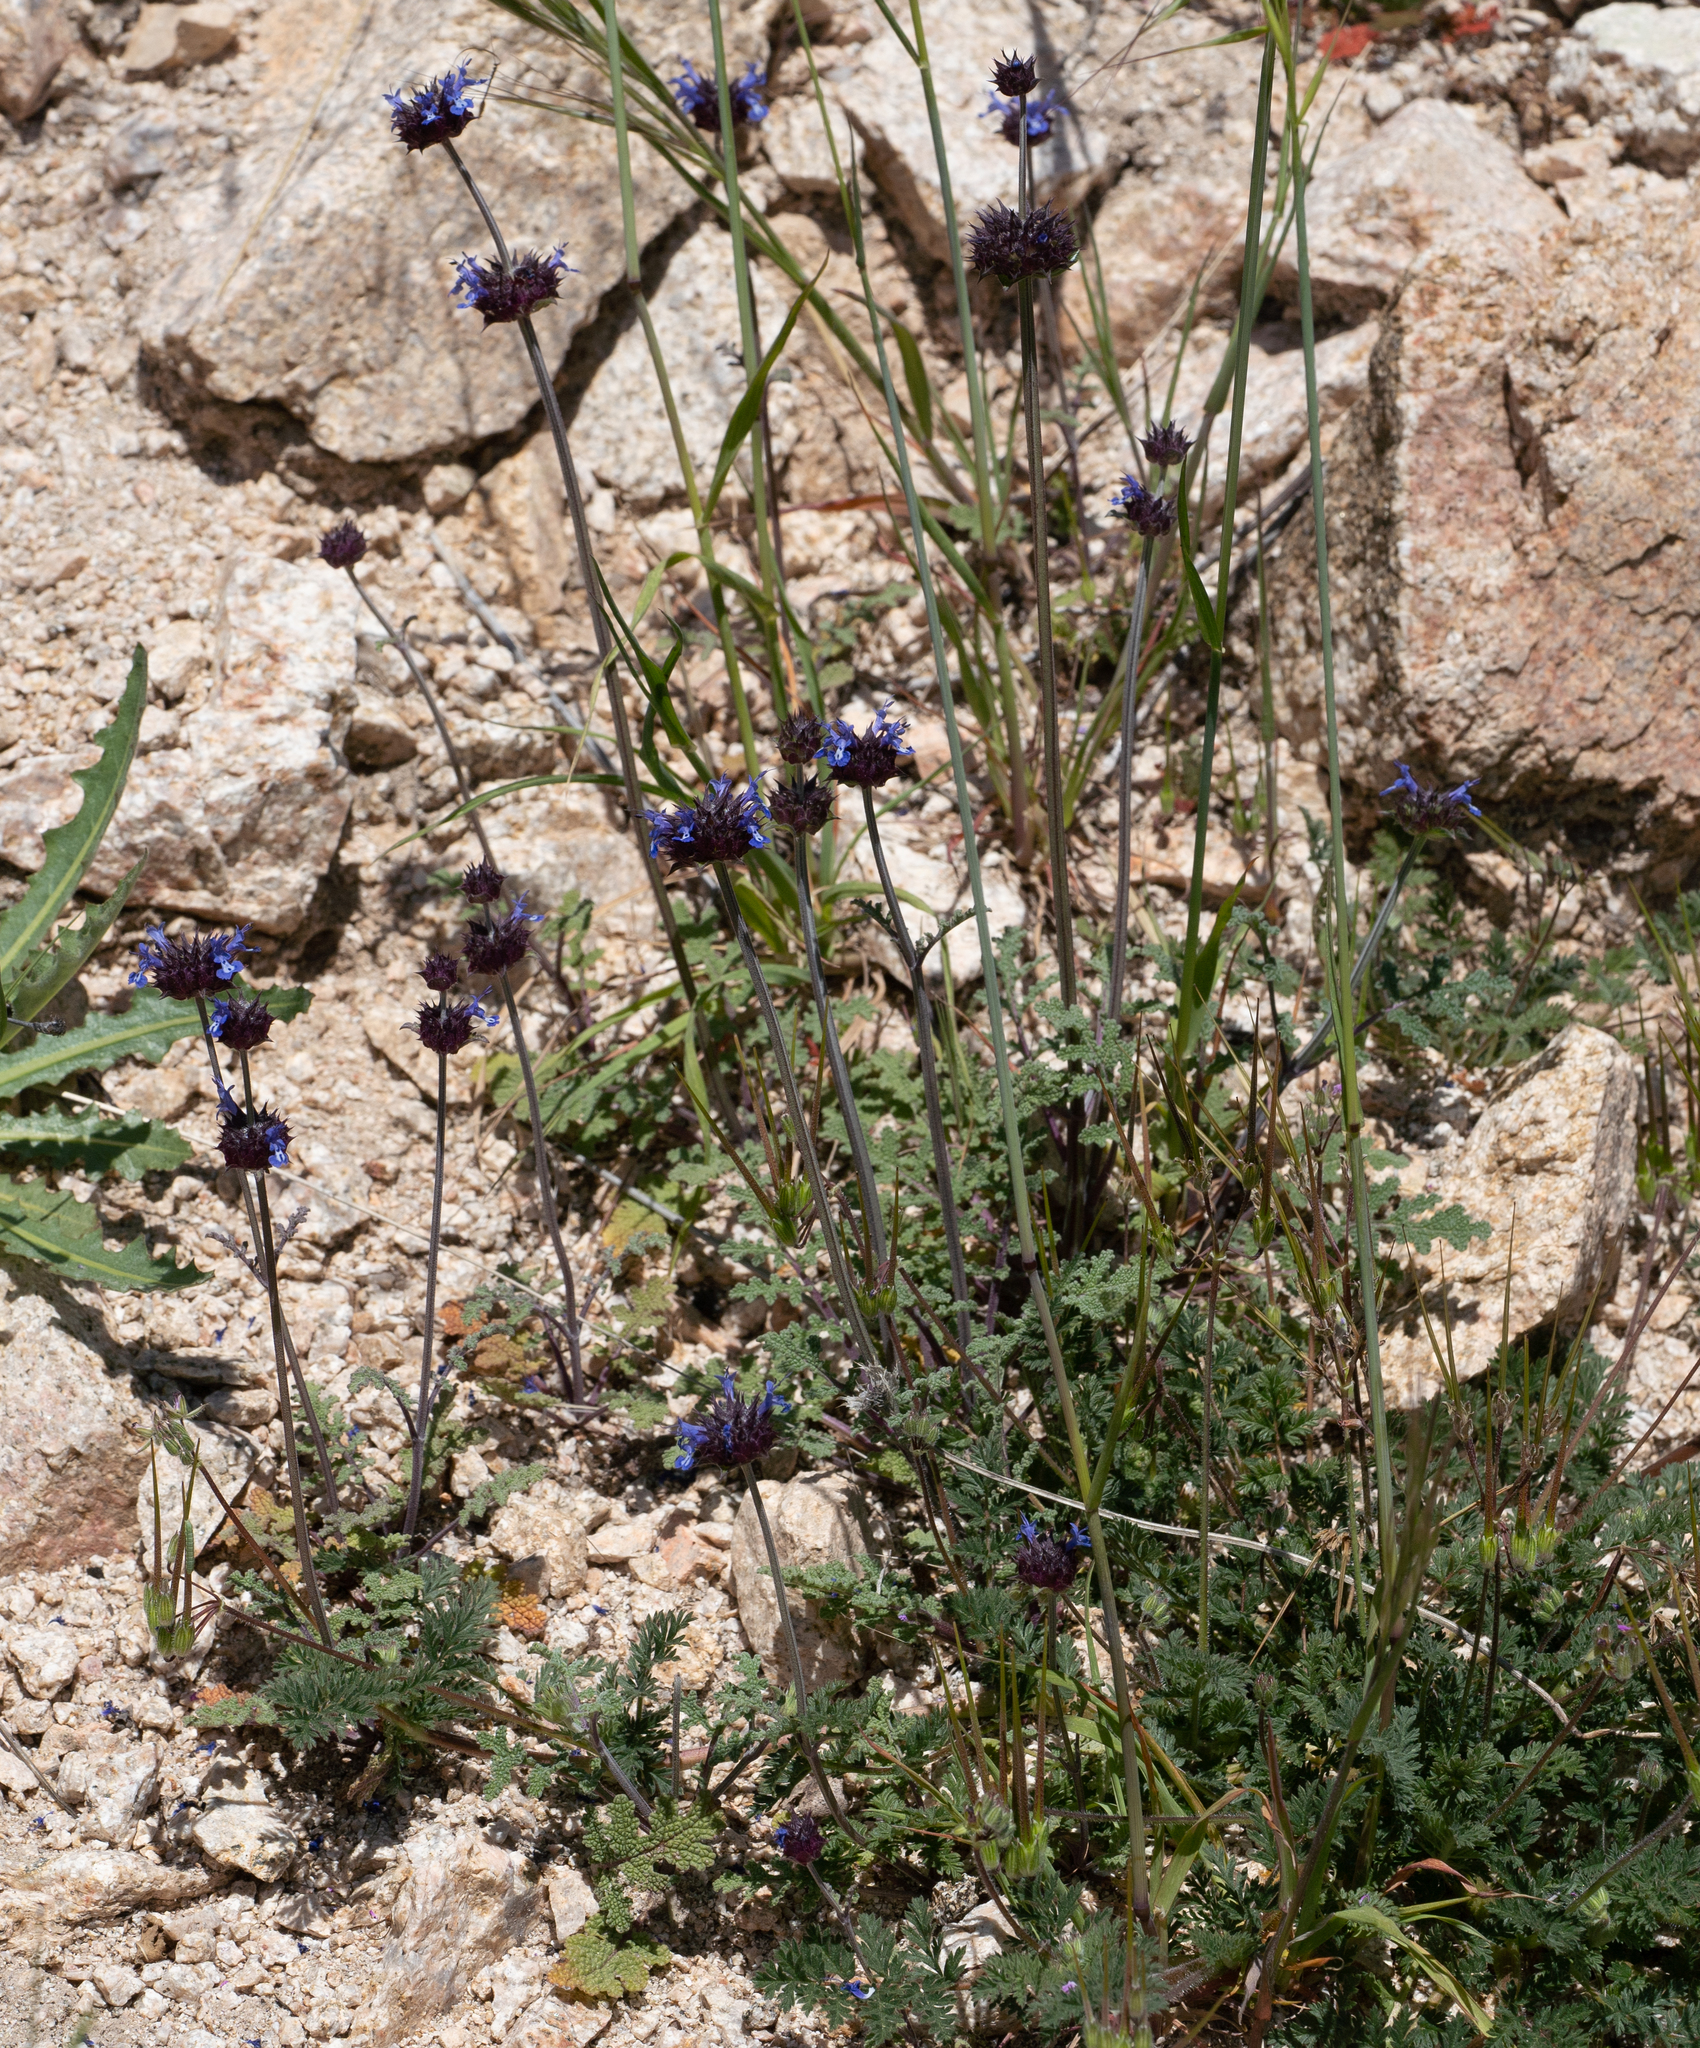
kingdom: Plantae
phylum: Tracheophyta
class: Magnoliopsida
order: Lamiales
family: Lamiaceae
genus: Salvia
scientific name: Salvia columbariae
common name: Chia
